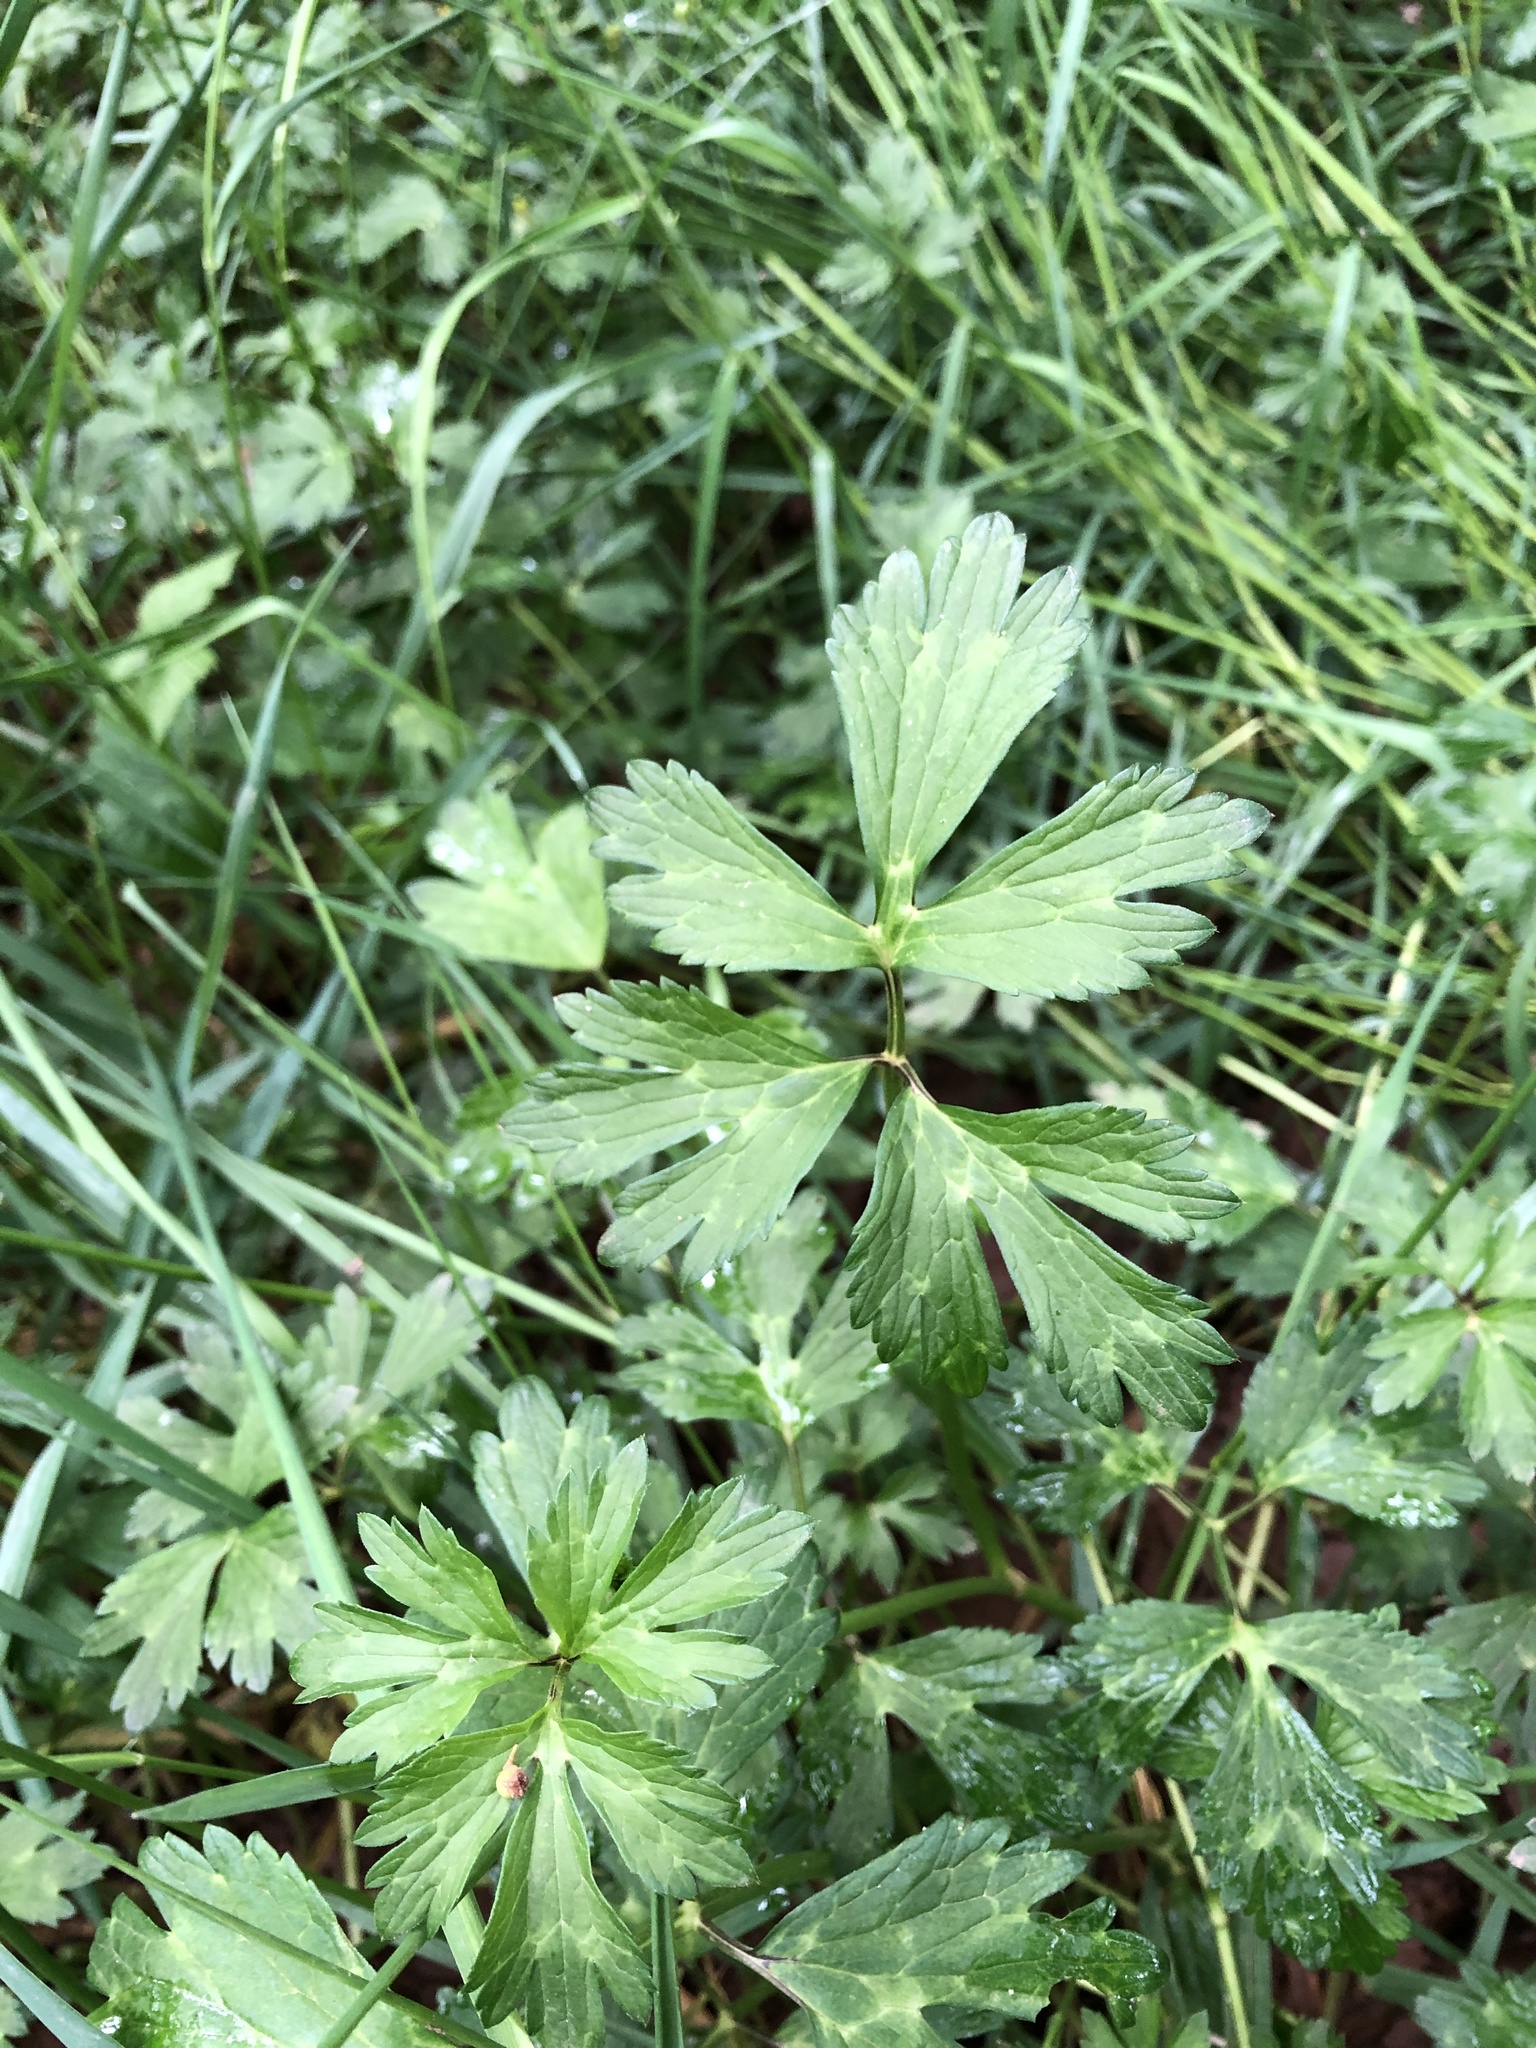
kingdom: Plantae
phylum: Tracheophyta
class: Magnoliopsida
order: Ranunculales
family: Ranunculaceae
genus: Ranunculus
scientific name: Ranunculus repens
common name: Creeping buttercup
